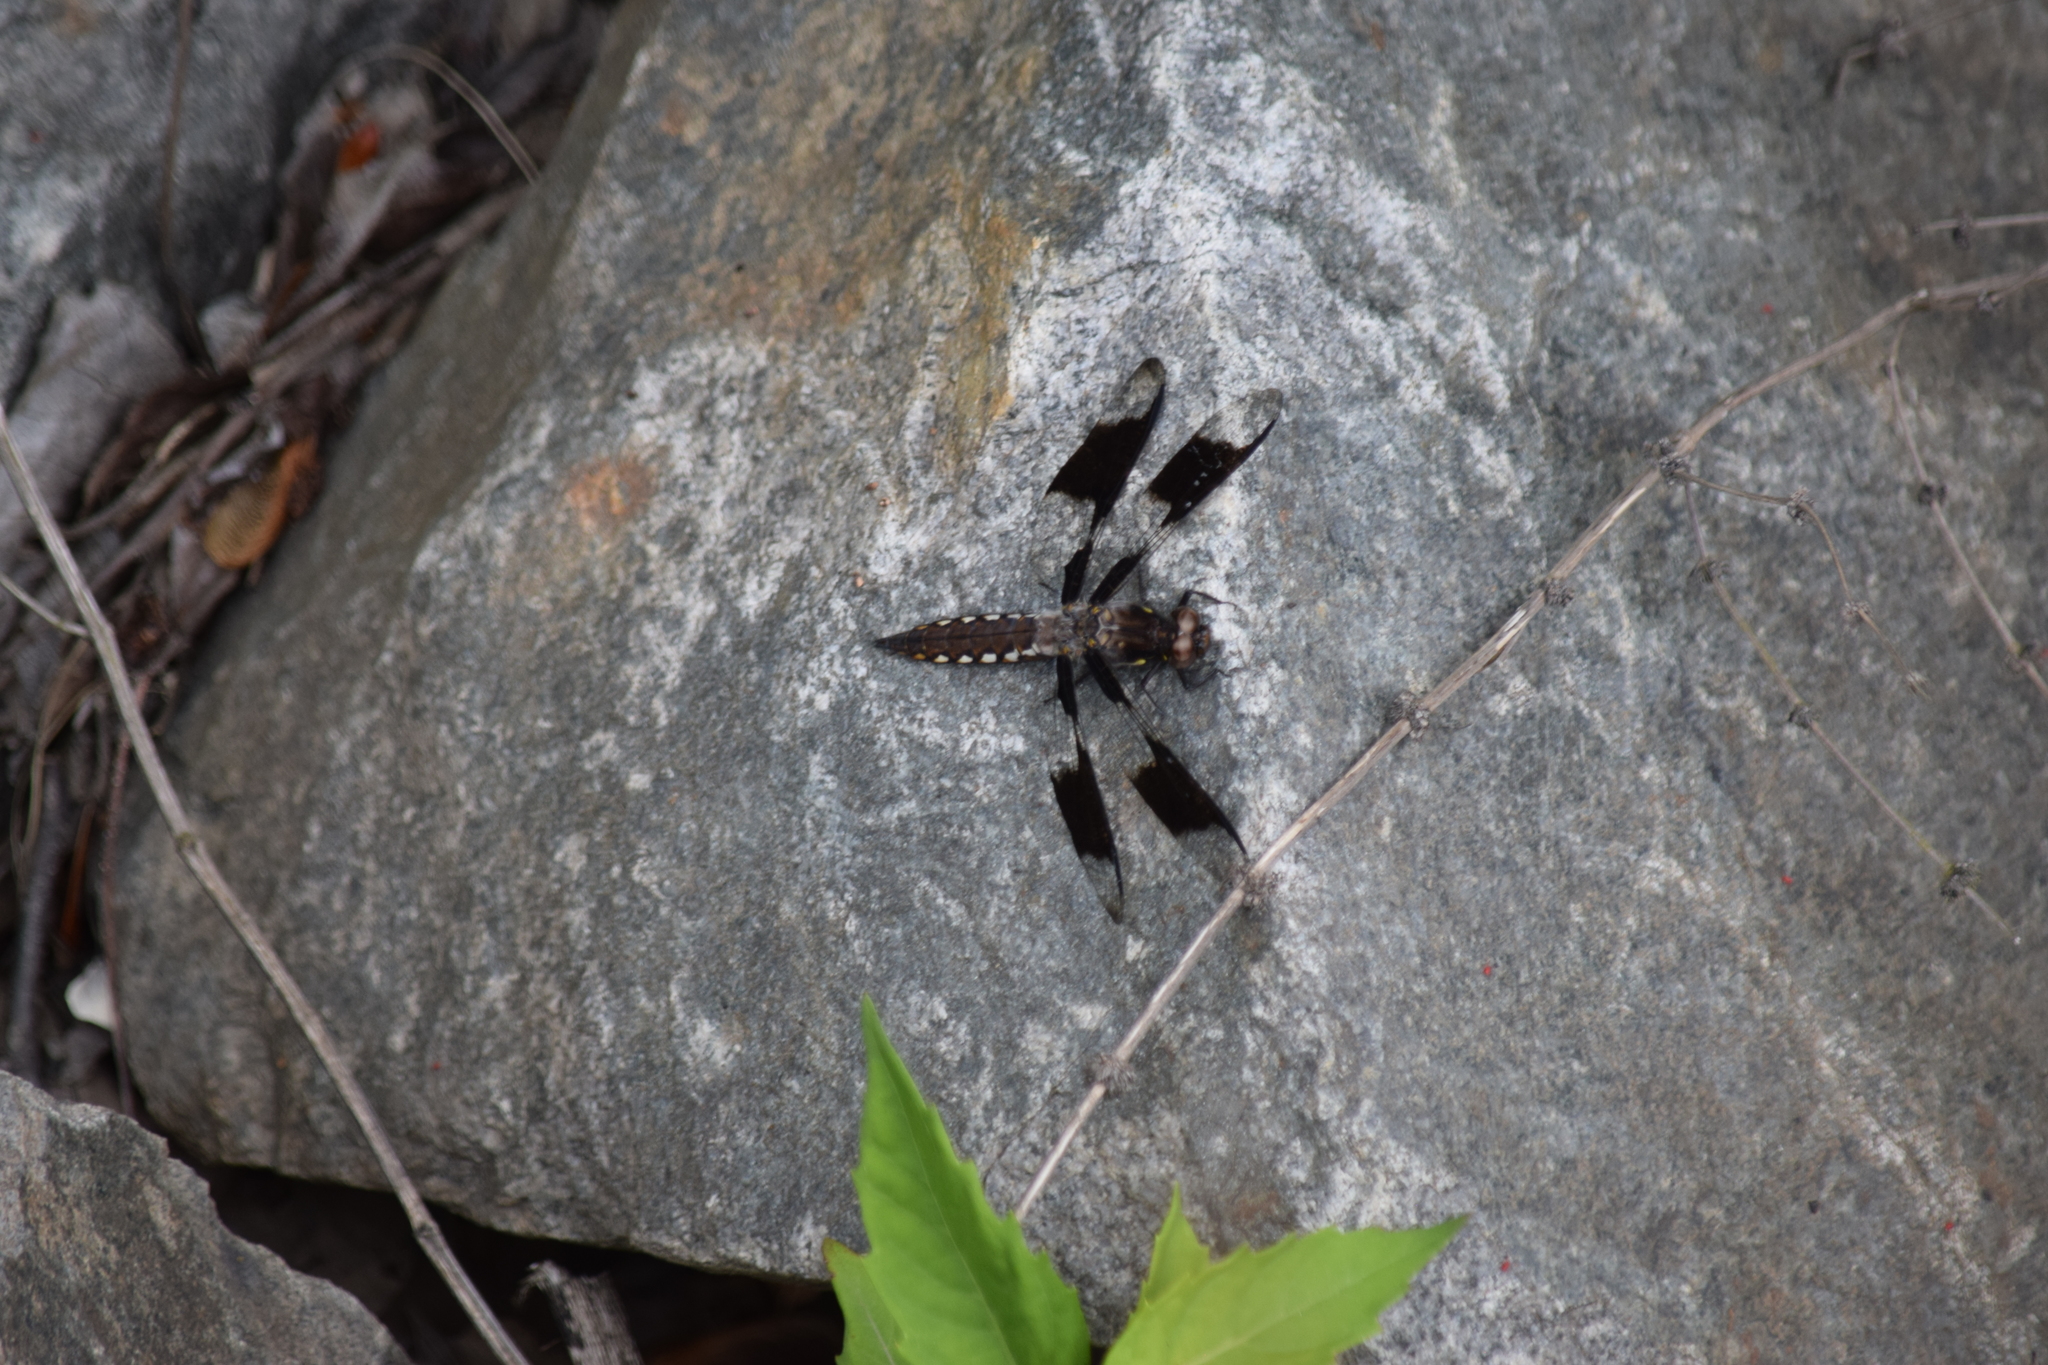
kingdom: Animalia
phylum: Arthropoda
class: Insecta
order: Odonata
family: Libellulidae
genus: Plathemis
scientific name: Plathemis lydia
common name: Common whitetail
